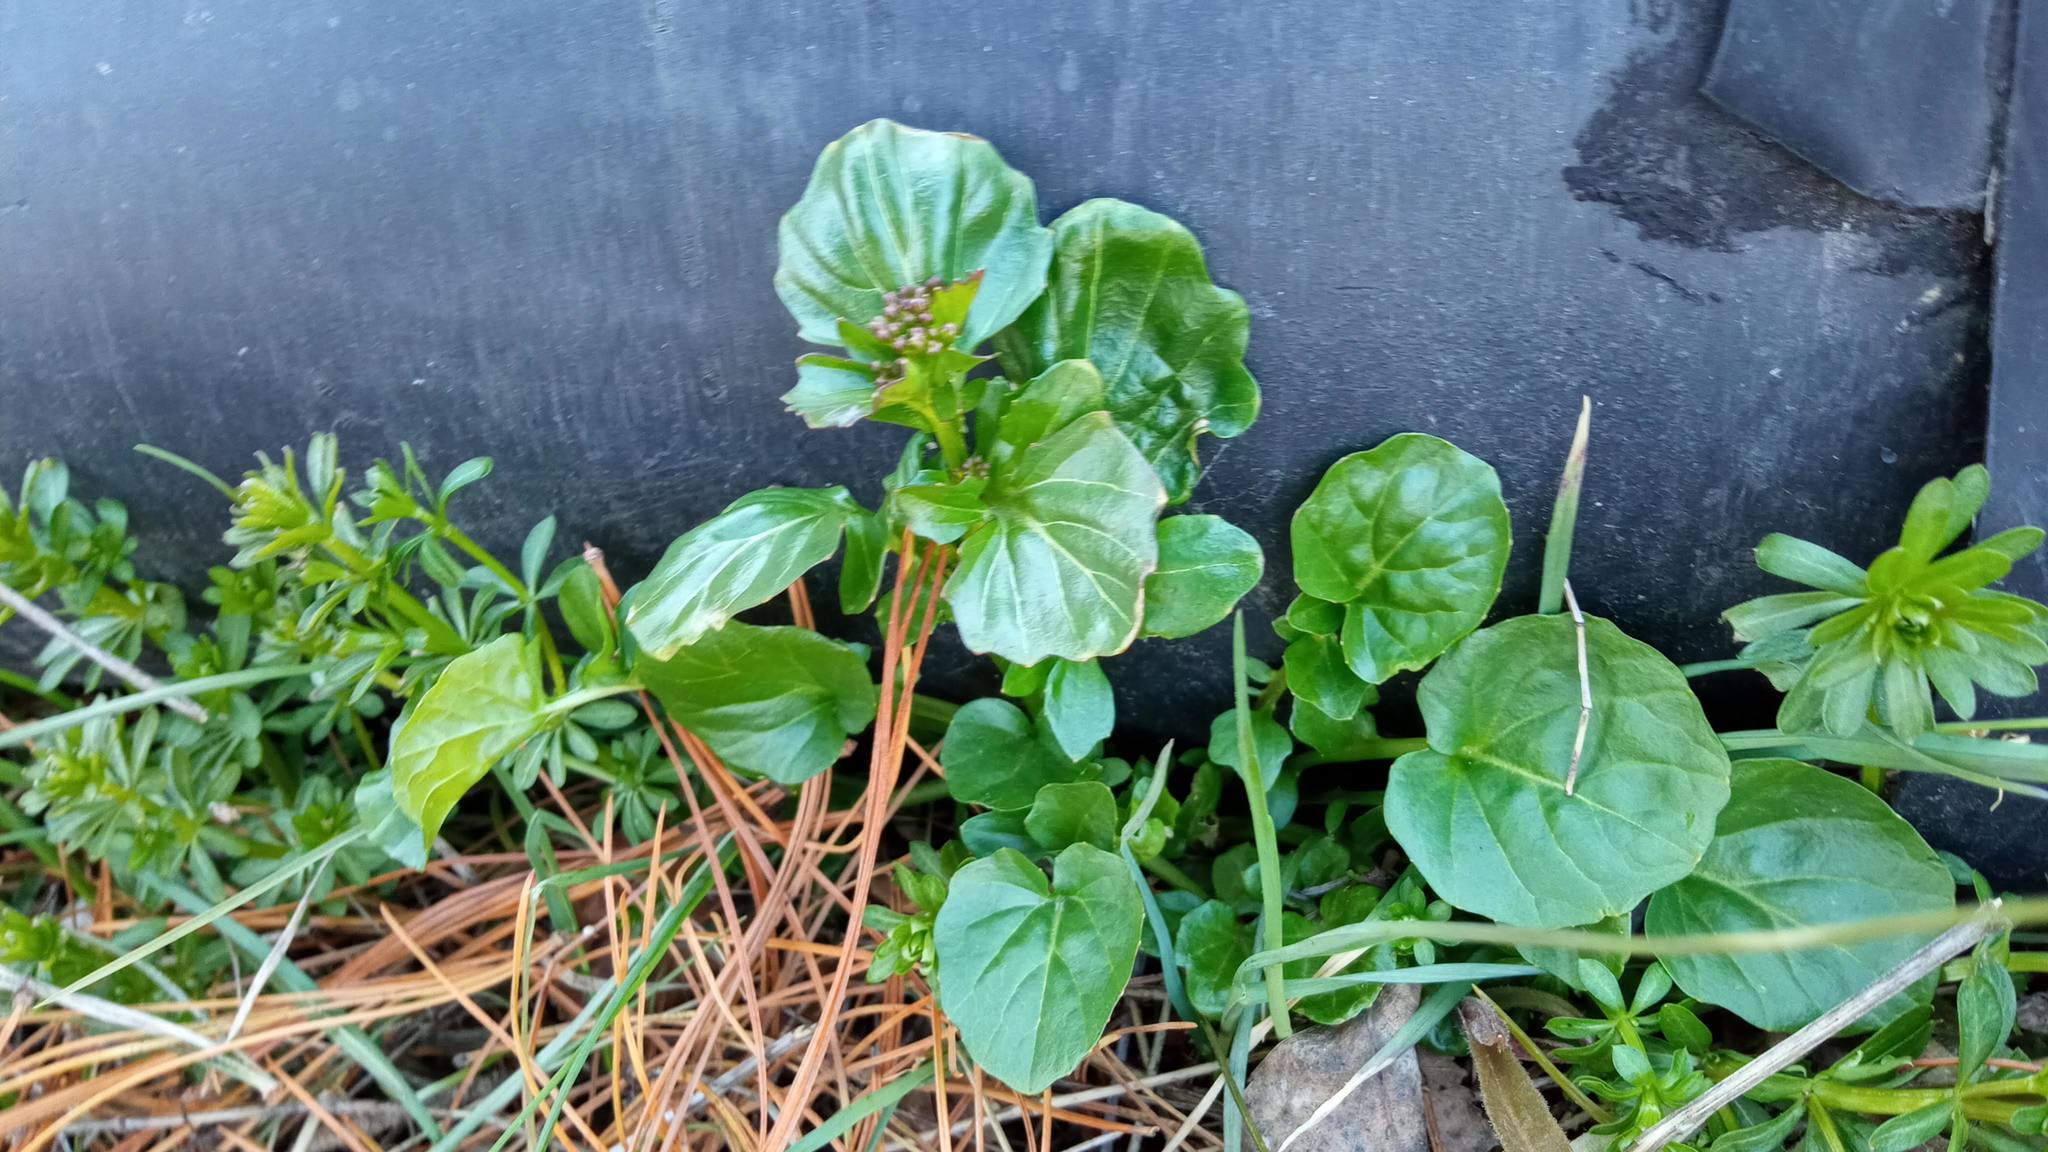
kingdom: Plantae
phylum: Tracheophyta
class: Magnoliopsida
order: Brassicales
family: Brassicaceae
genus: Barbarea
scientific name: Barbarea vulgaris
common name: Cressy-greens
